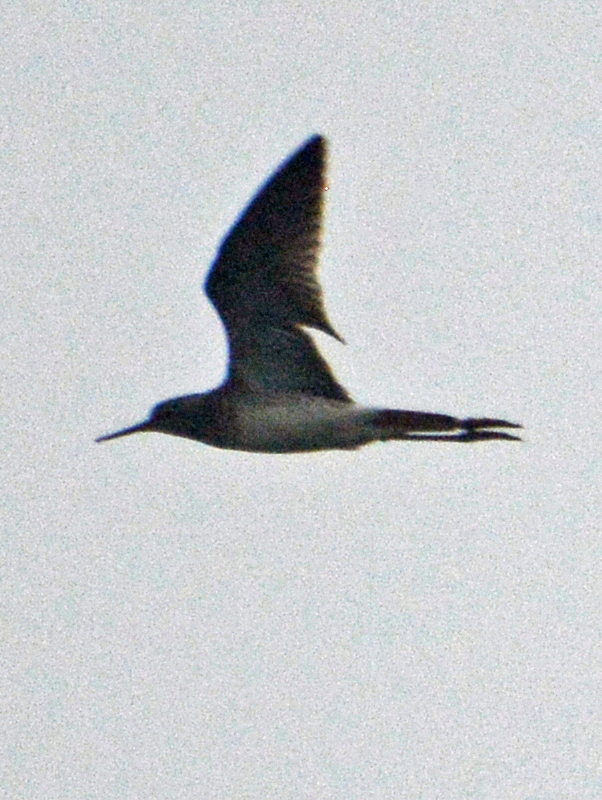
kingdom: Animalia
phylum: Chordata
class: Aves
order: Charadriiformes
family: Scolopacidae
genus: Tringa
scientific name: Tringa flavipes
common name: Lesser yellowlegs
